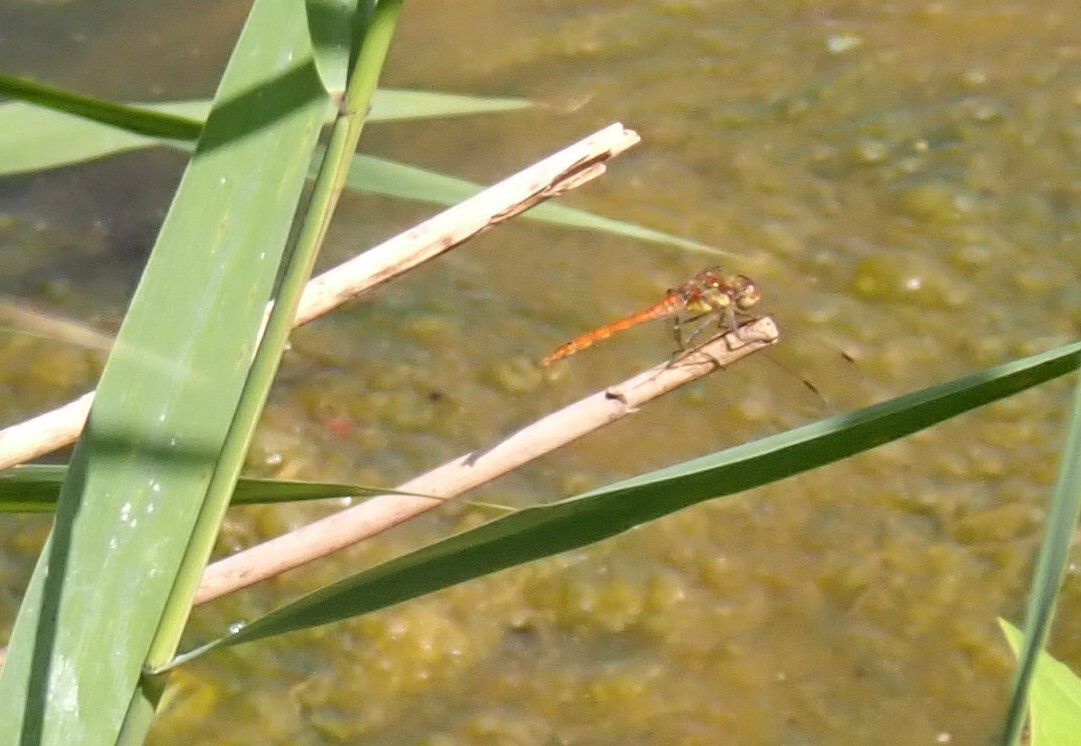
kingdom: Animalia
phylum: Arthropoda
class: Insecta
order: Odonata
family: Libellulidae
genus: Sympetrum
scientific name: Sympetrum striolatum
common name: Common darter
